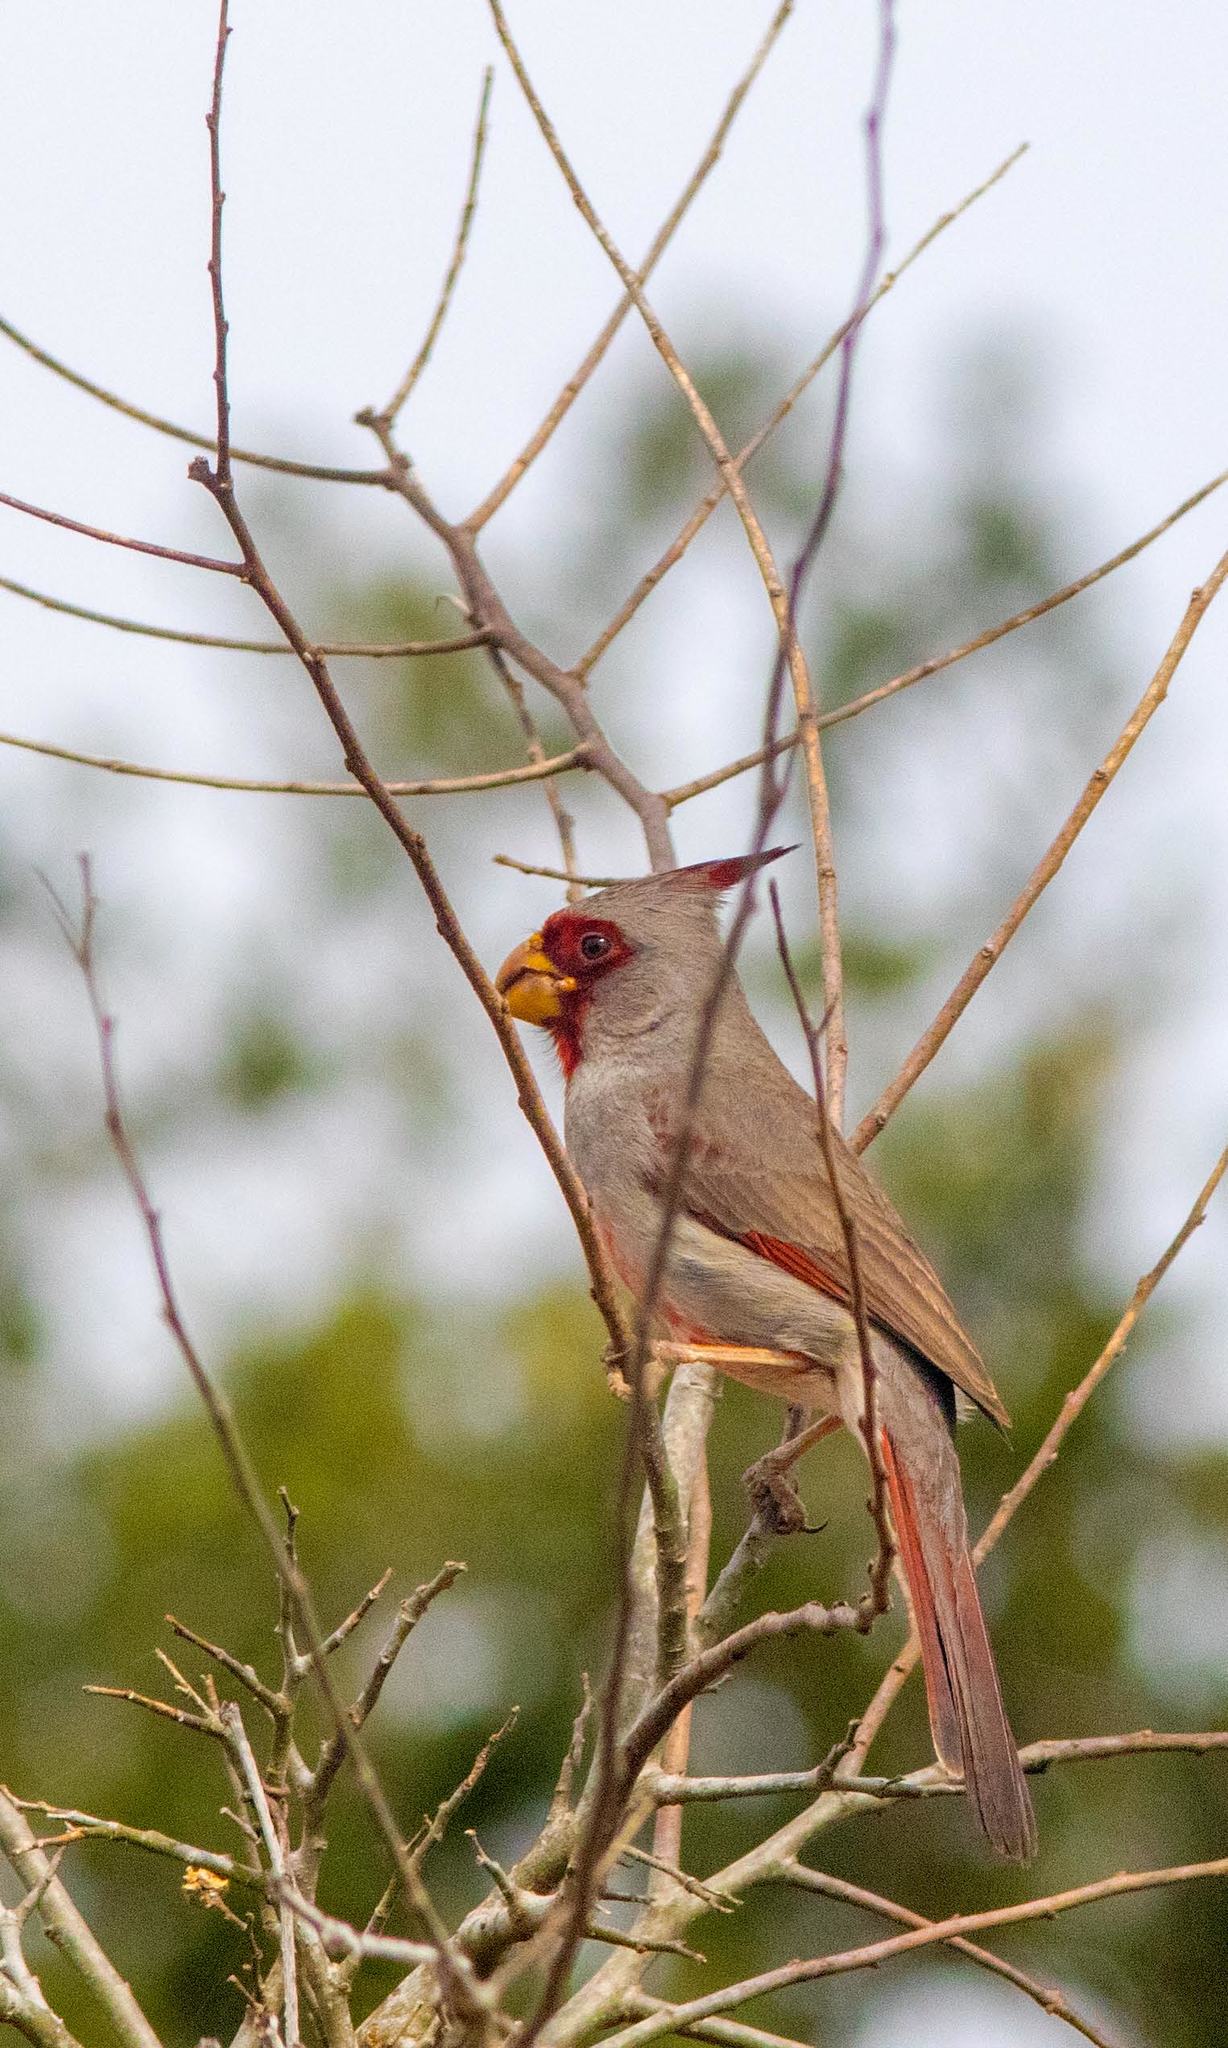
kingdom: Animalia
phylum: Chordata
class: Aves
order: Passeriformes
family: Cardinalidae
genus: Cardinalis
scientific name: Cardinalis sinuatus
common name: Pyrrhuloxia
